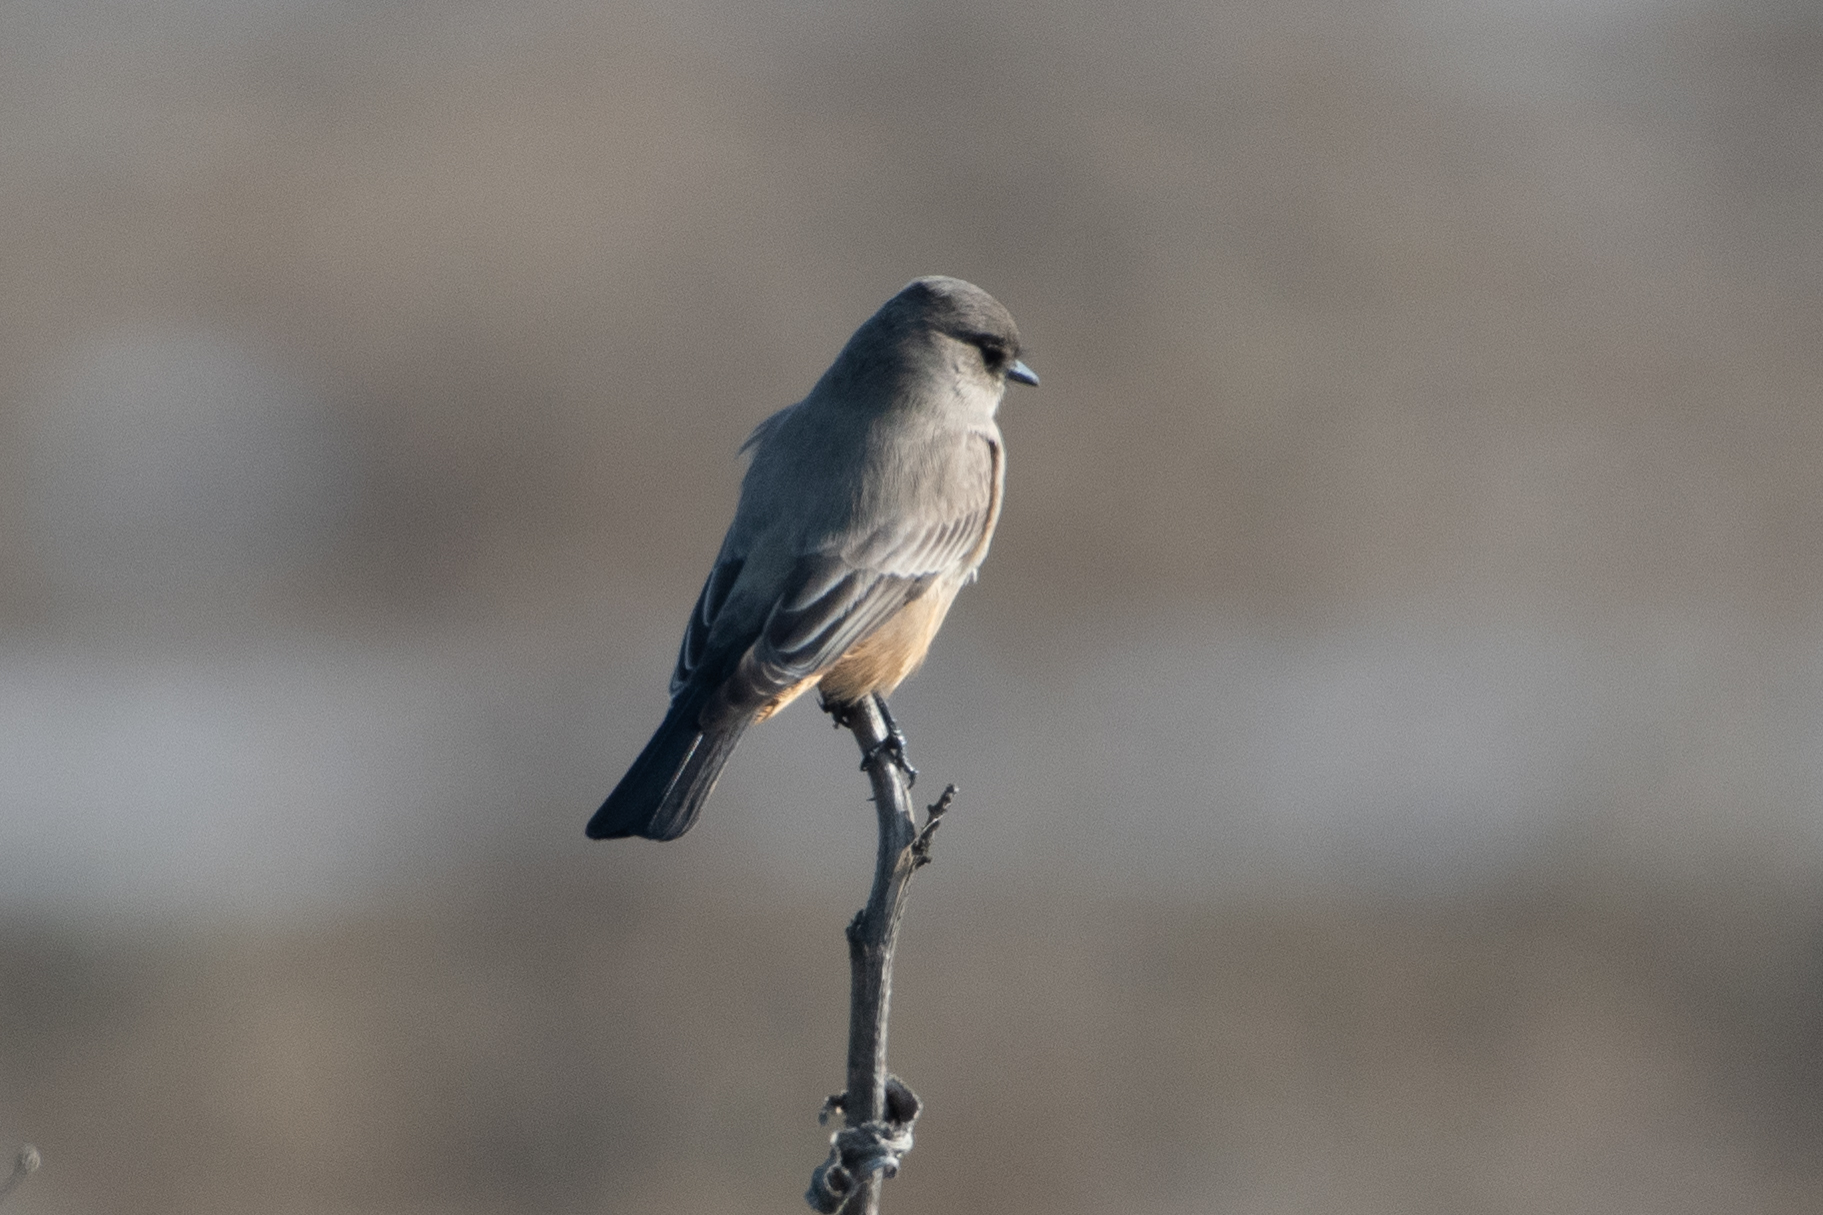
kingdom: Animalia
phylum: Chordata
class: Aves
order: Passeriformes
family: Tyrannidae
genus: Sayornis
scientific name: Sayornis saya
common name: Say's phoebe
